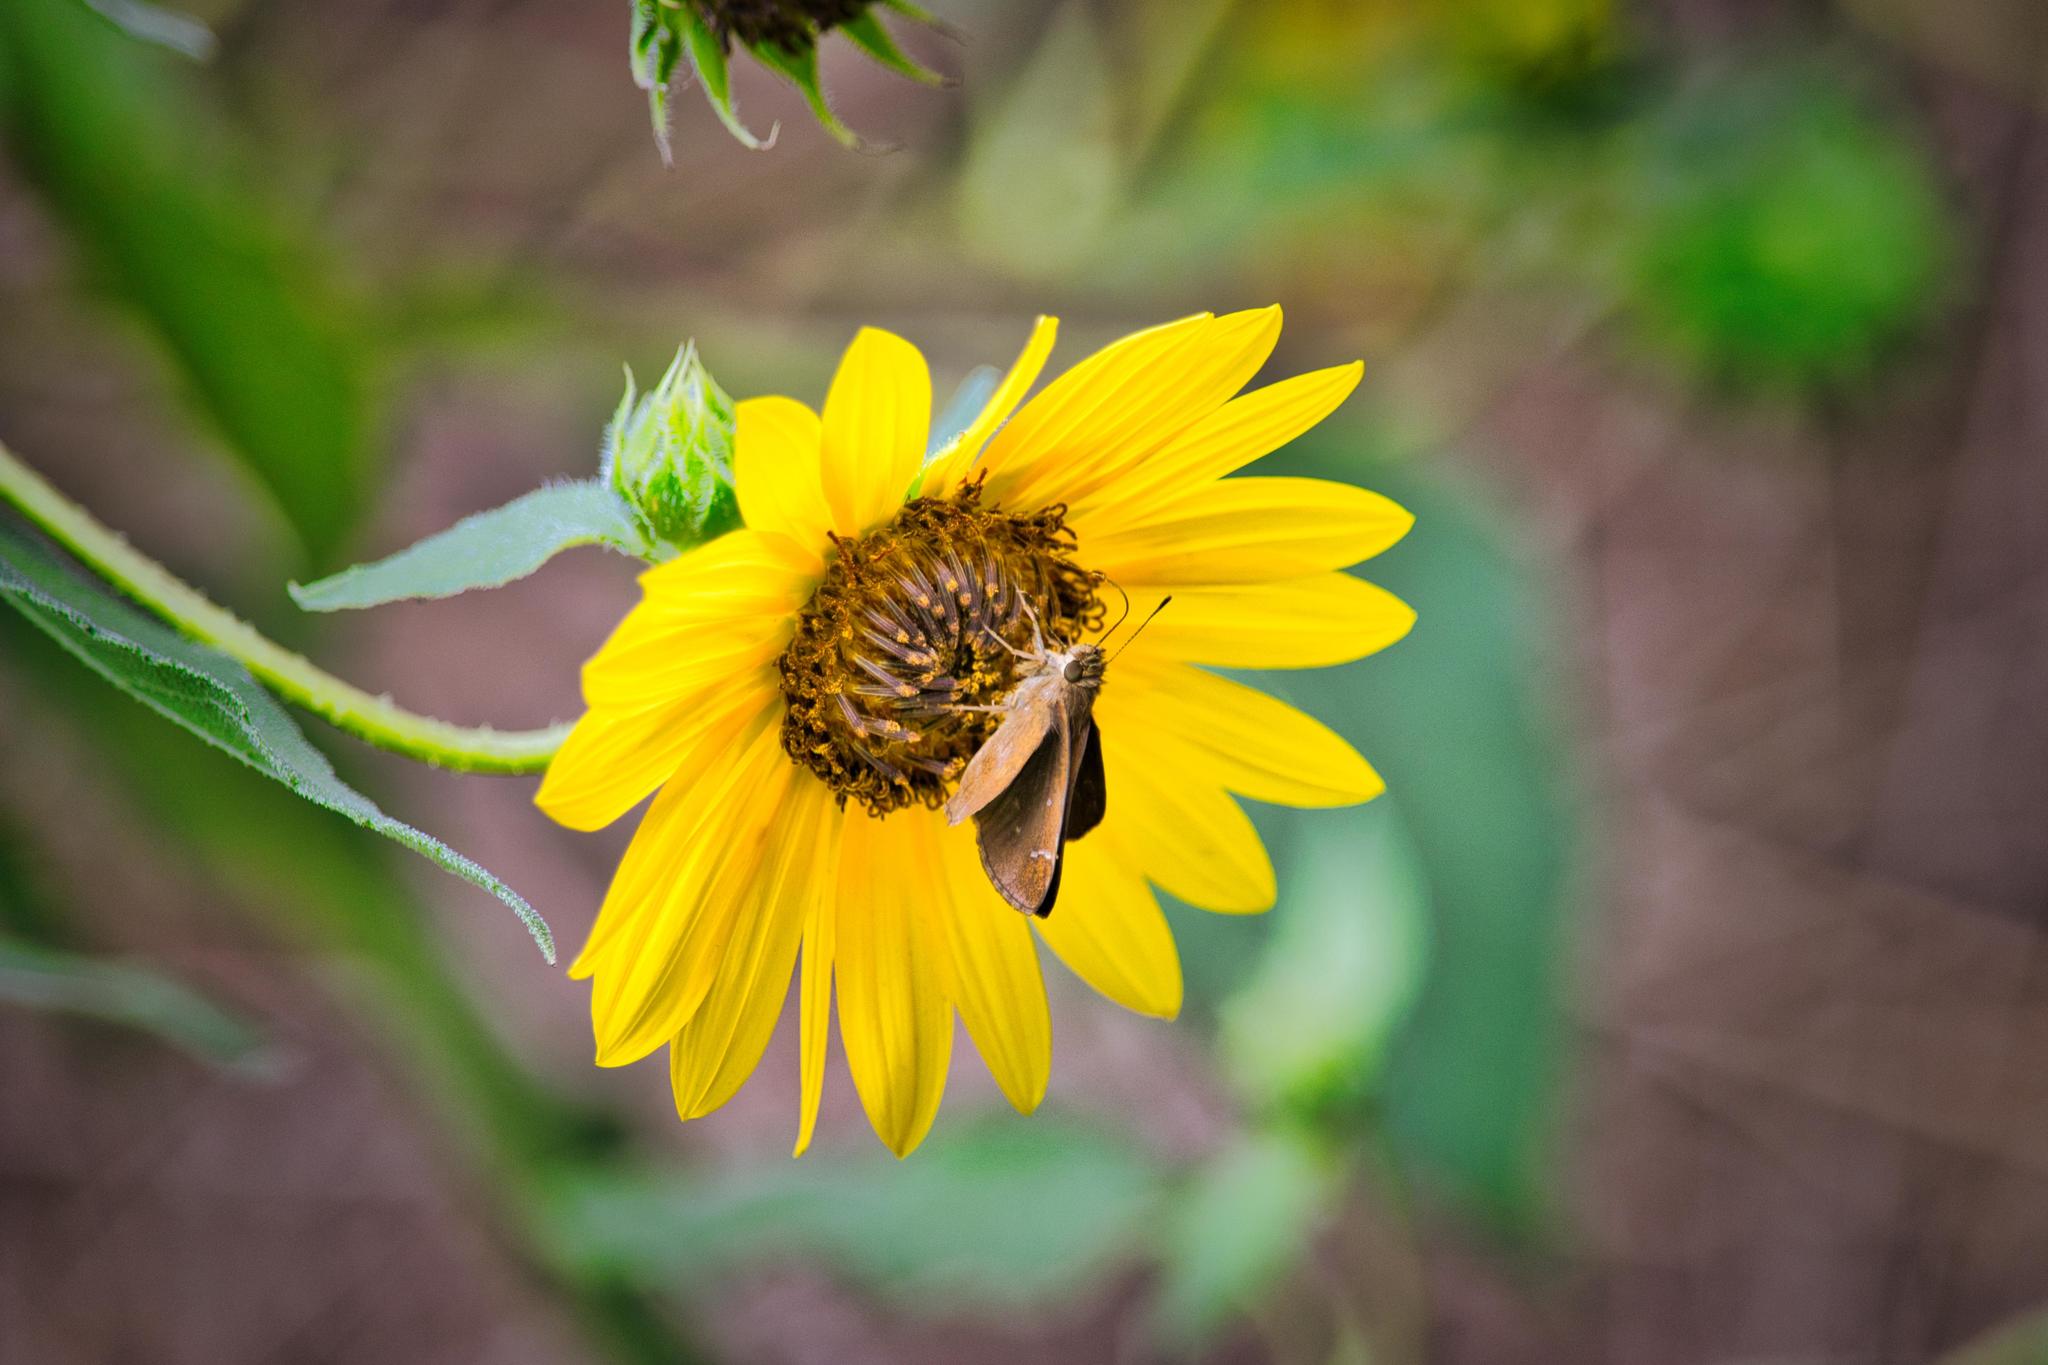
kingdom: Animalia
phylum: Arthropoda
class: Insecta
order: Lepidoptera
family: Hesperiidae
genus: Lerema
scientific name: Lerema accius
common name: Clouded skipper
